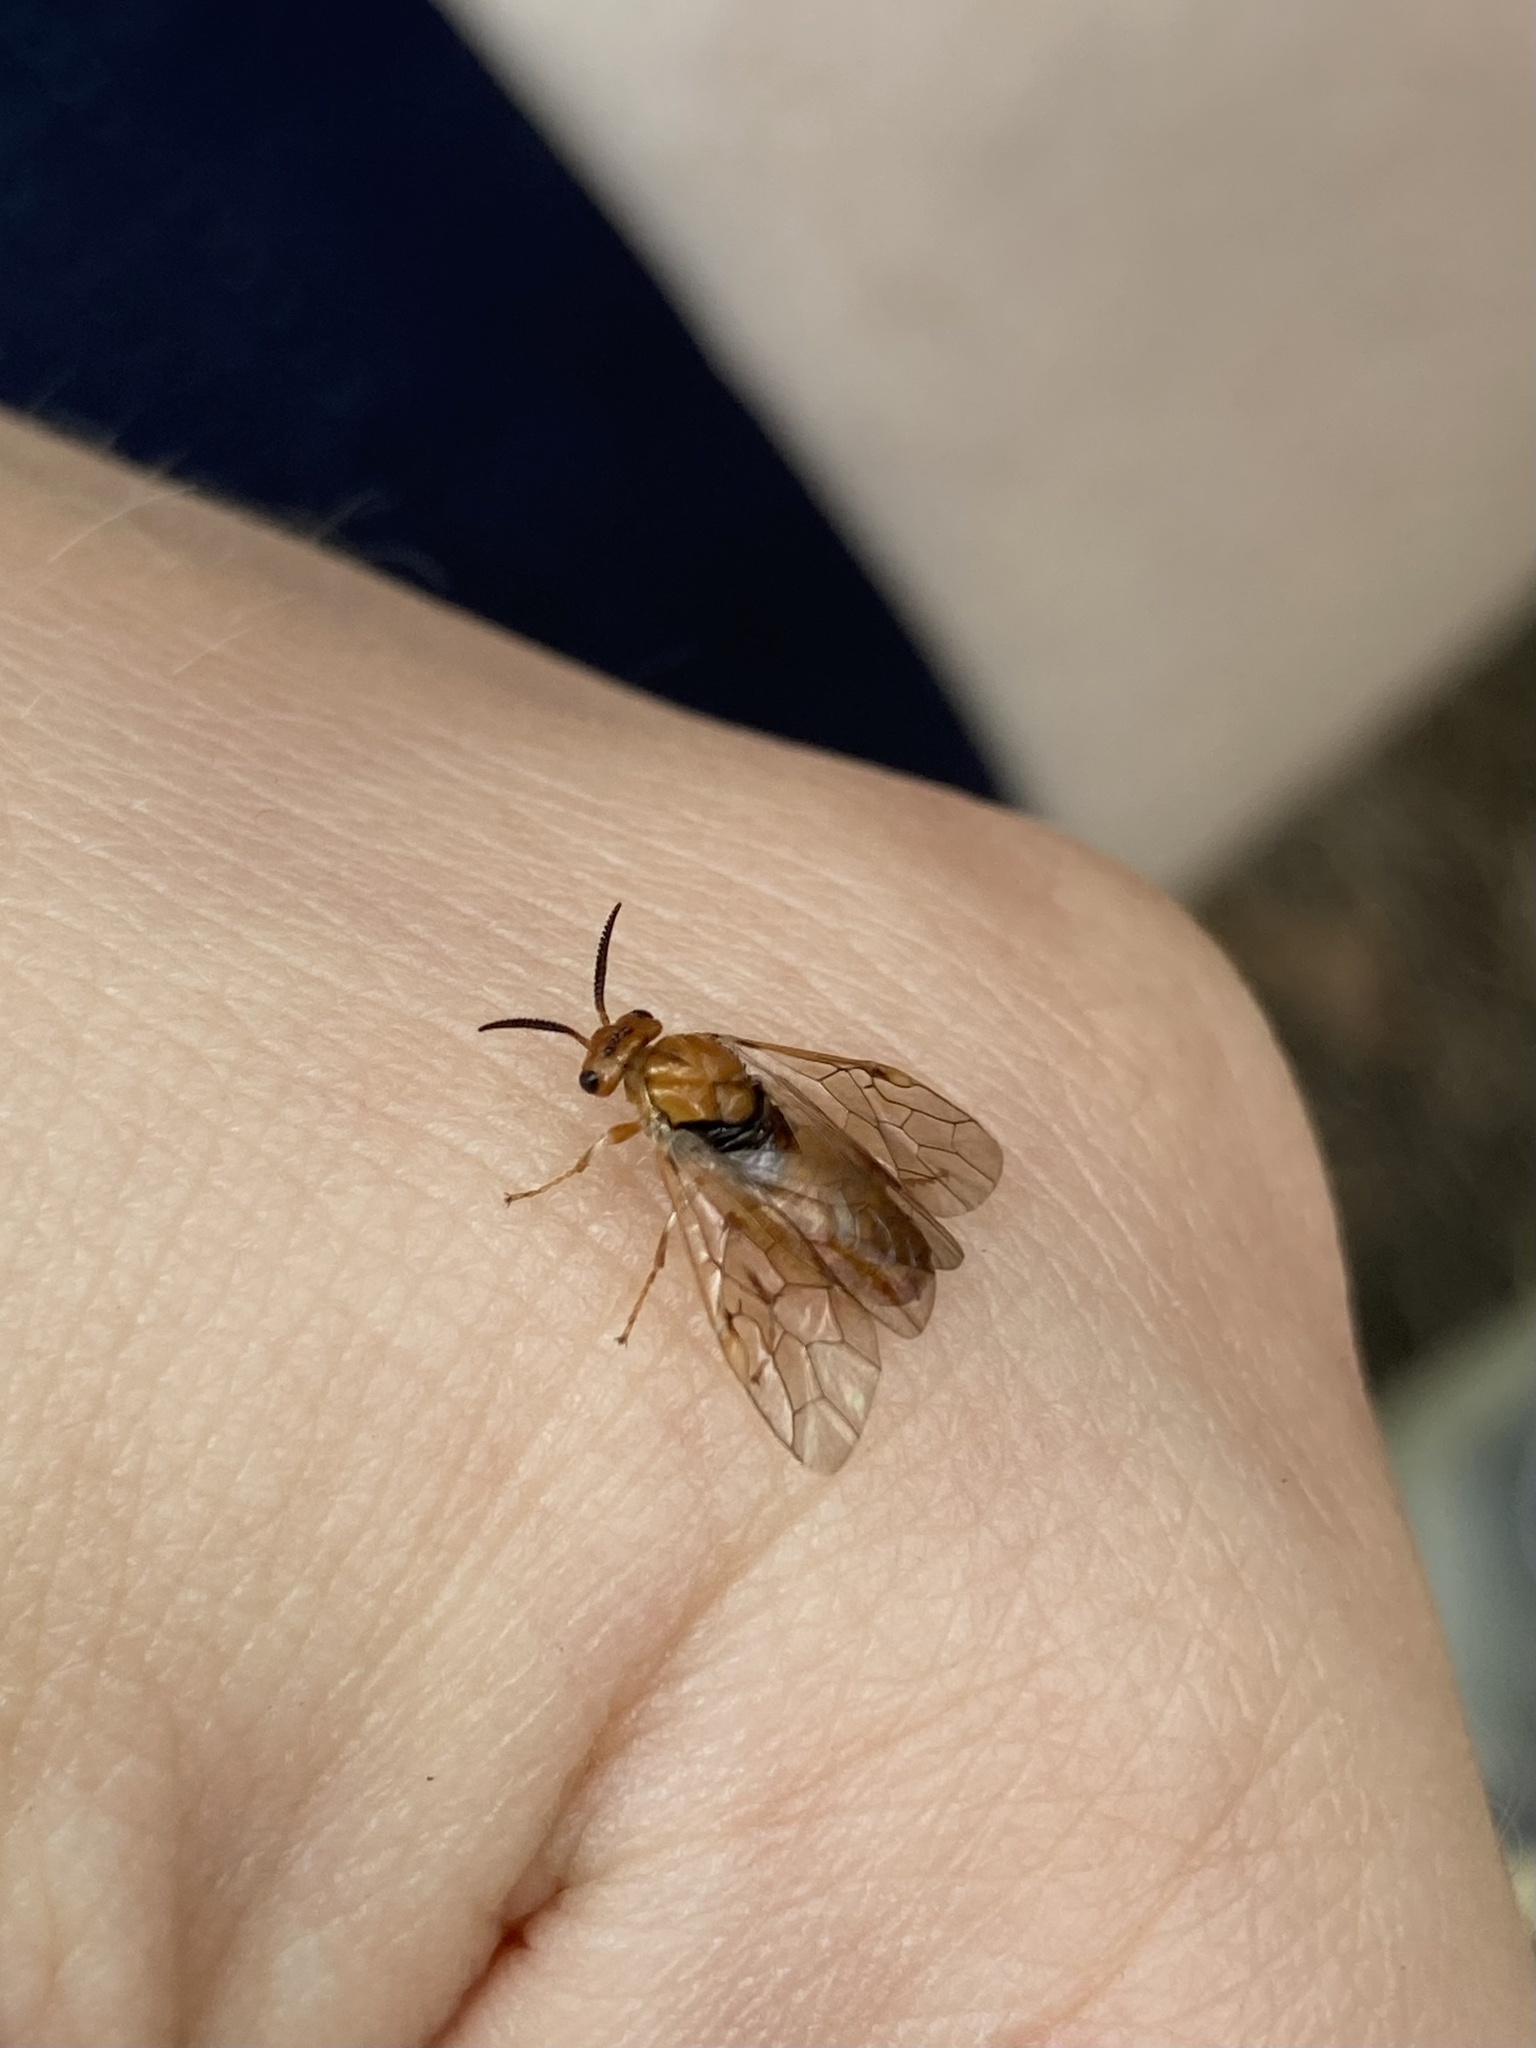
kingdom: Animalia
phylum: Arthropoda
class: Insecta
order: Hymenoptera
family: Diprionidae
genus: Neodiprion
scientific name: Neodiprion sertifer
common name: European pine sawfly
